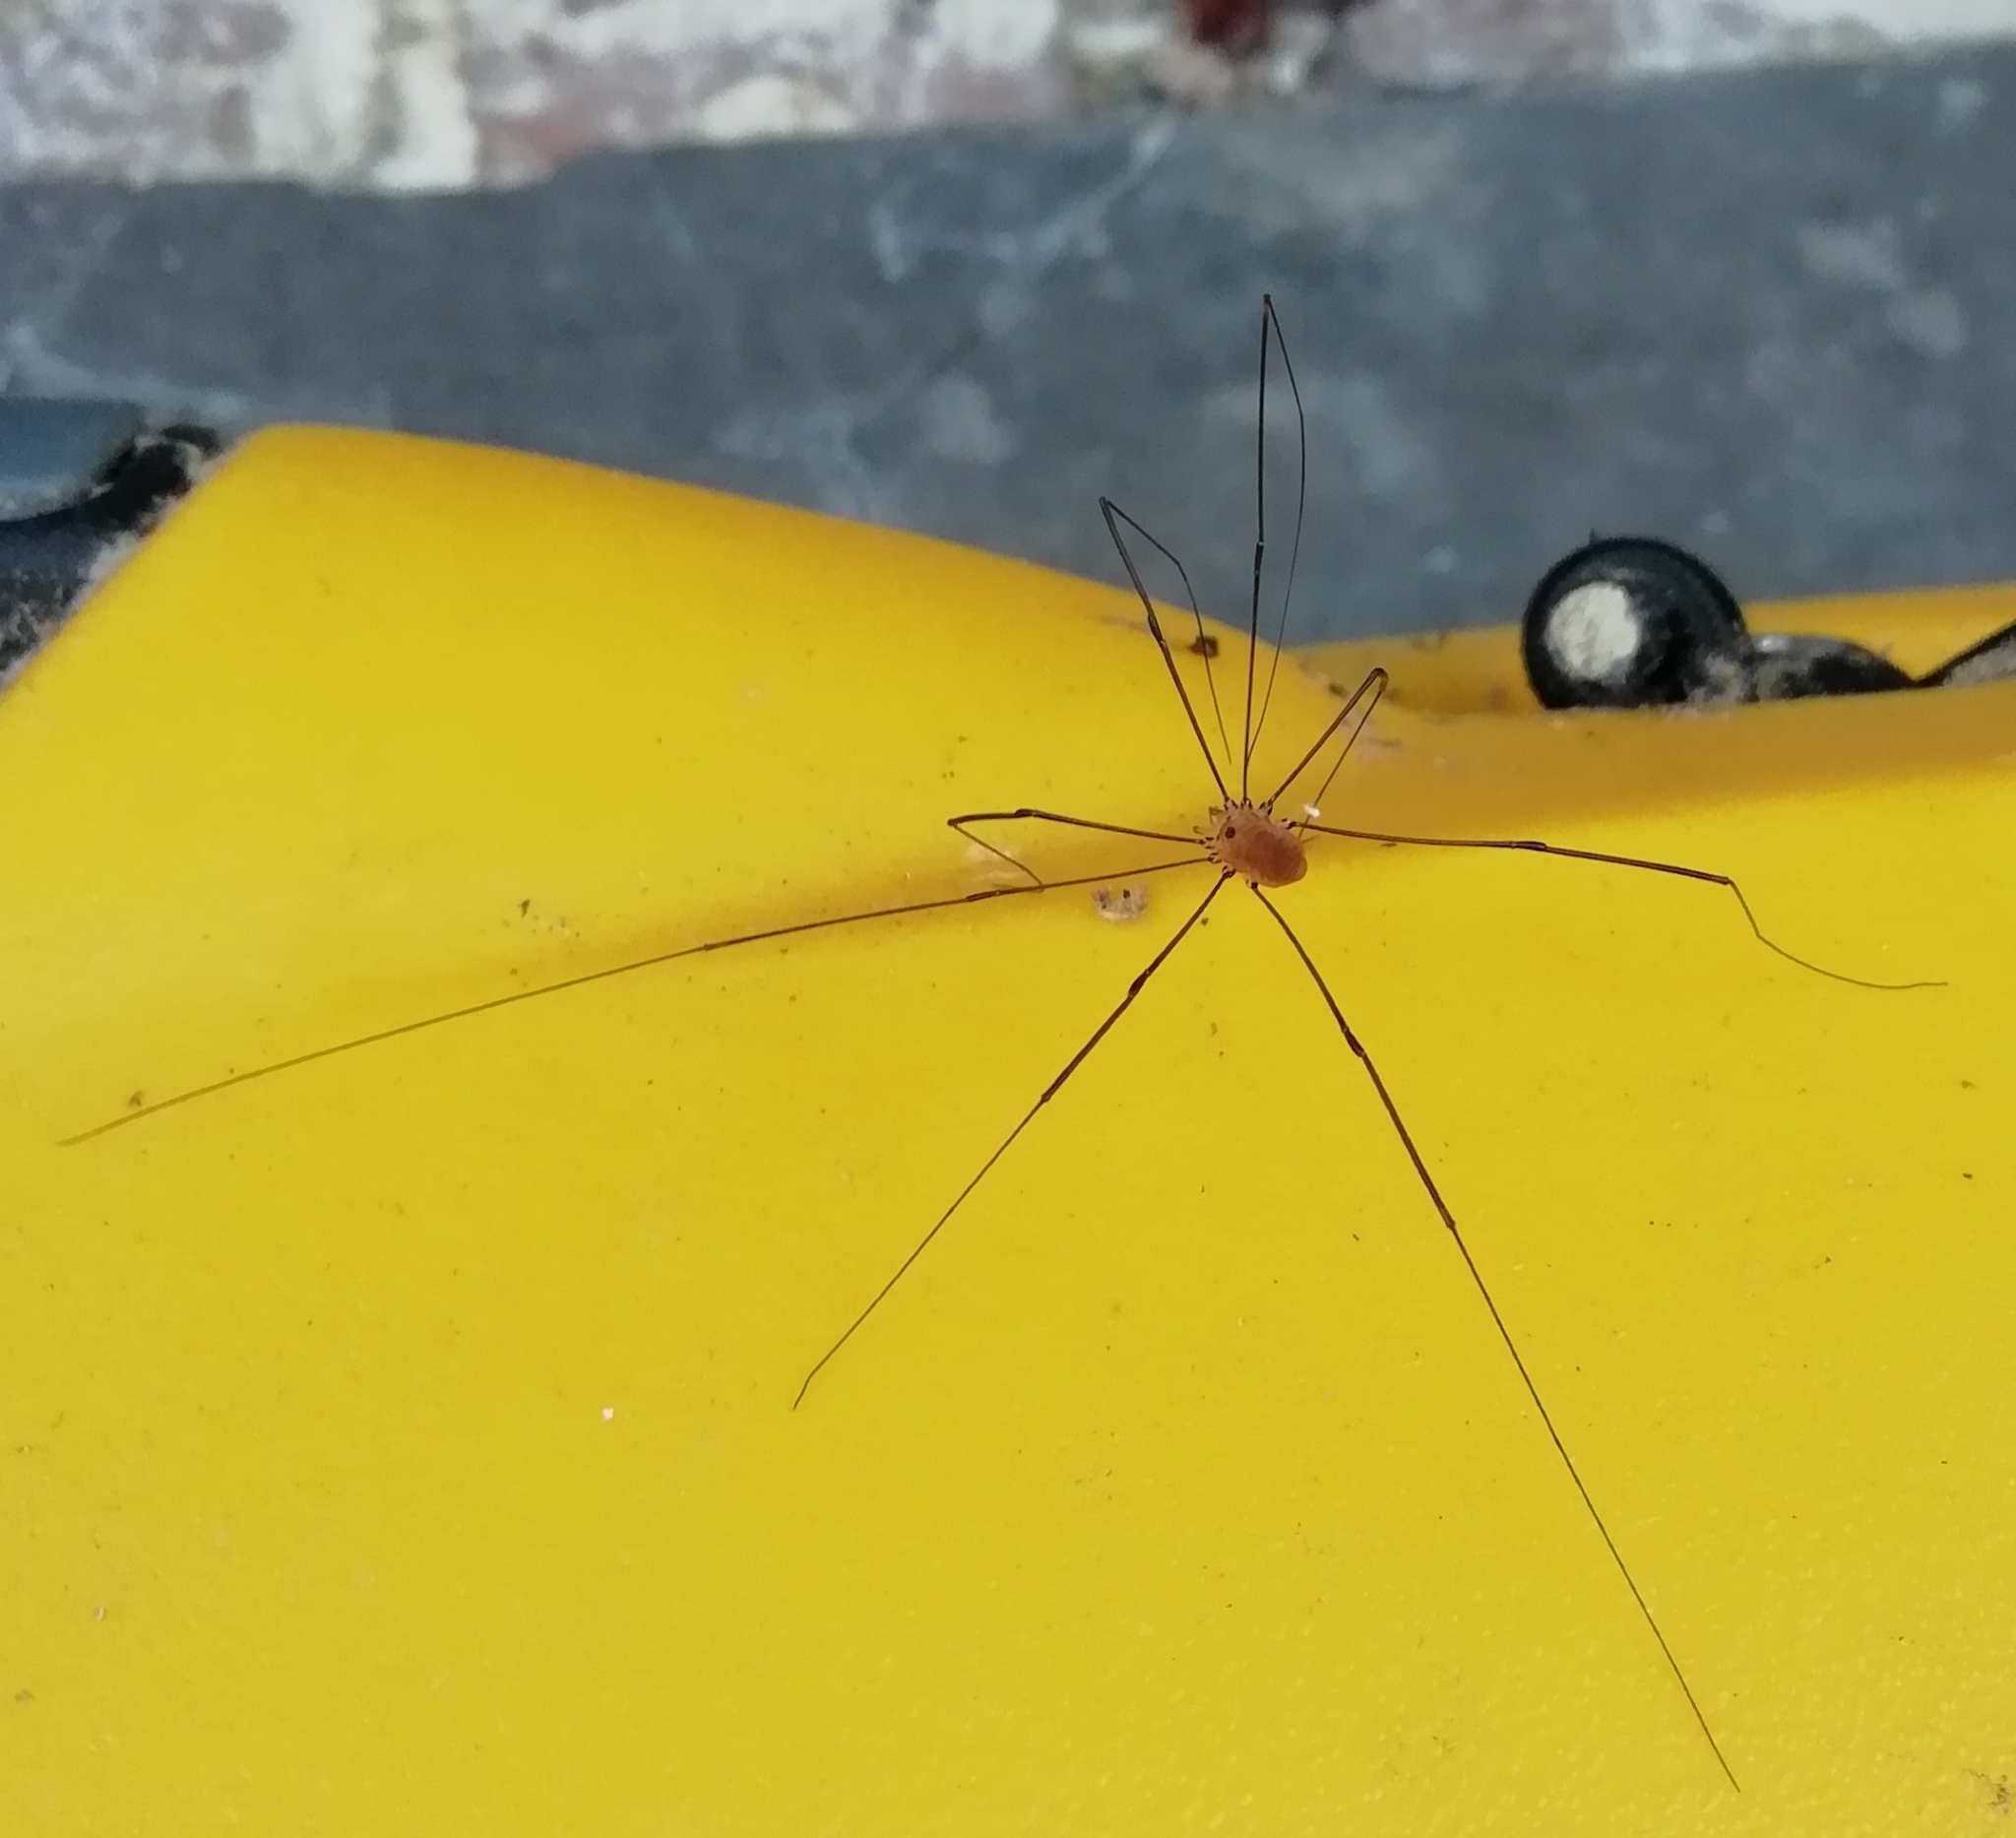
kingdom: Animalia
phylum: Arthropoda
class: Arachnida
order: Opiliones
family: Sclerosomatidae
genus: Leiobunum
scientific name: Leiobunum rotundum
